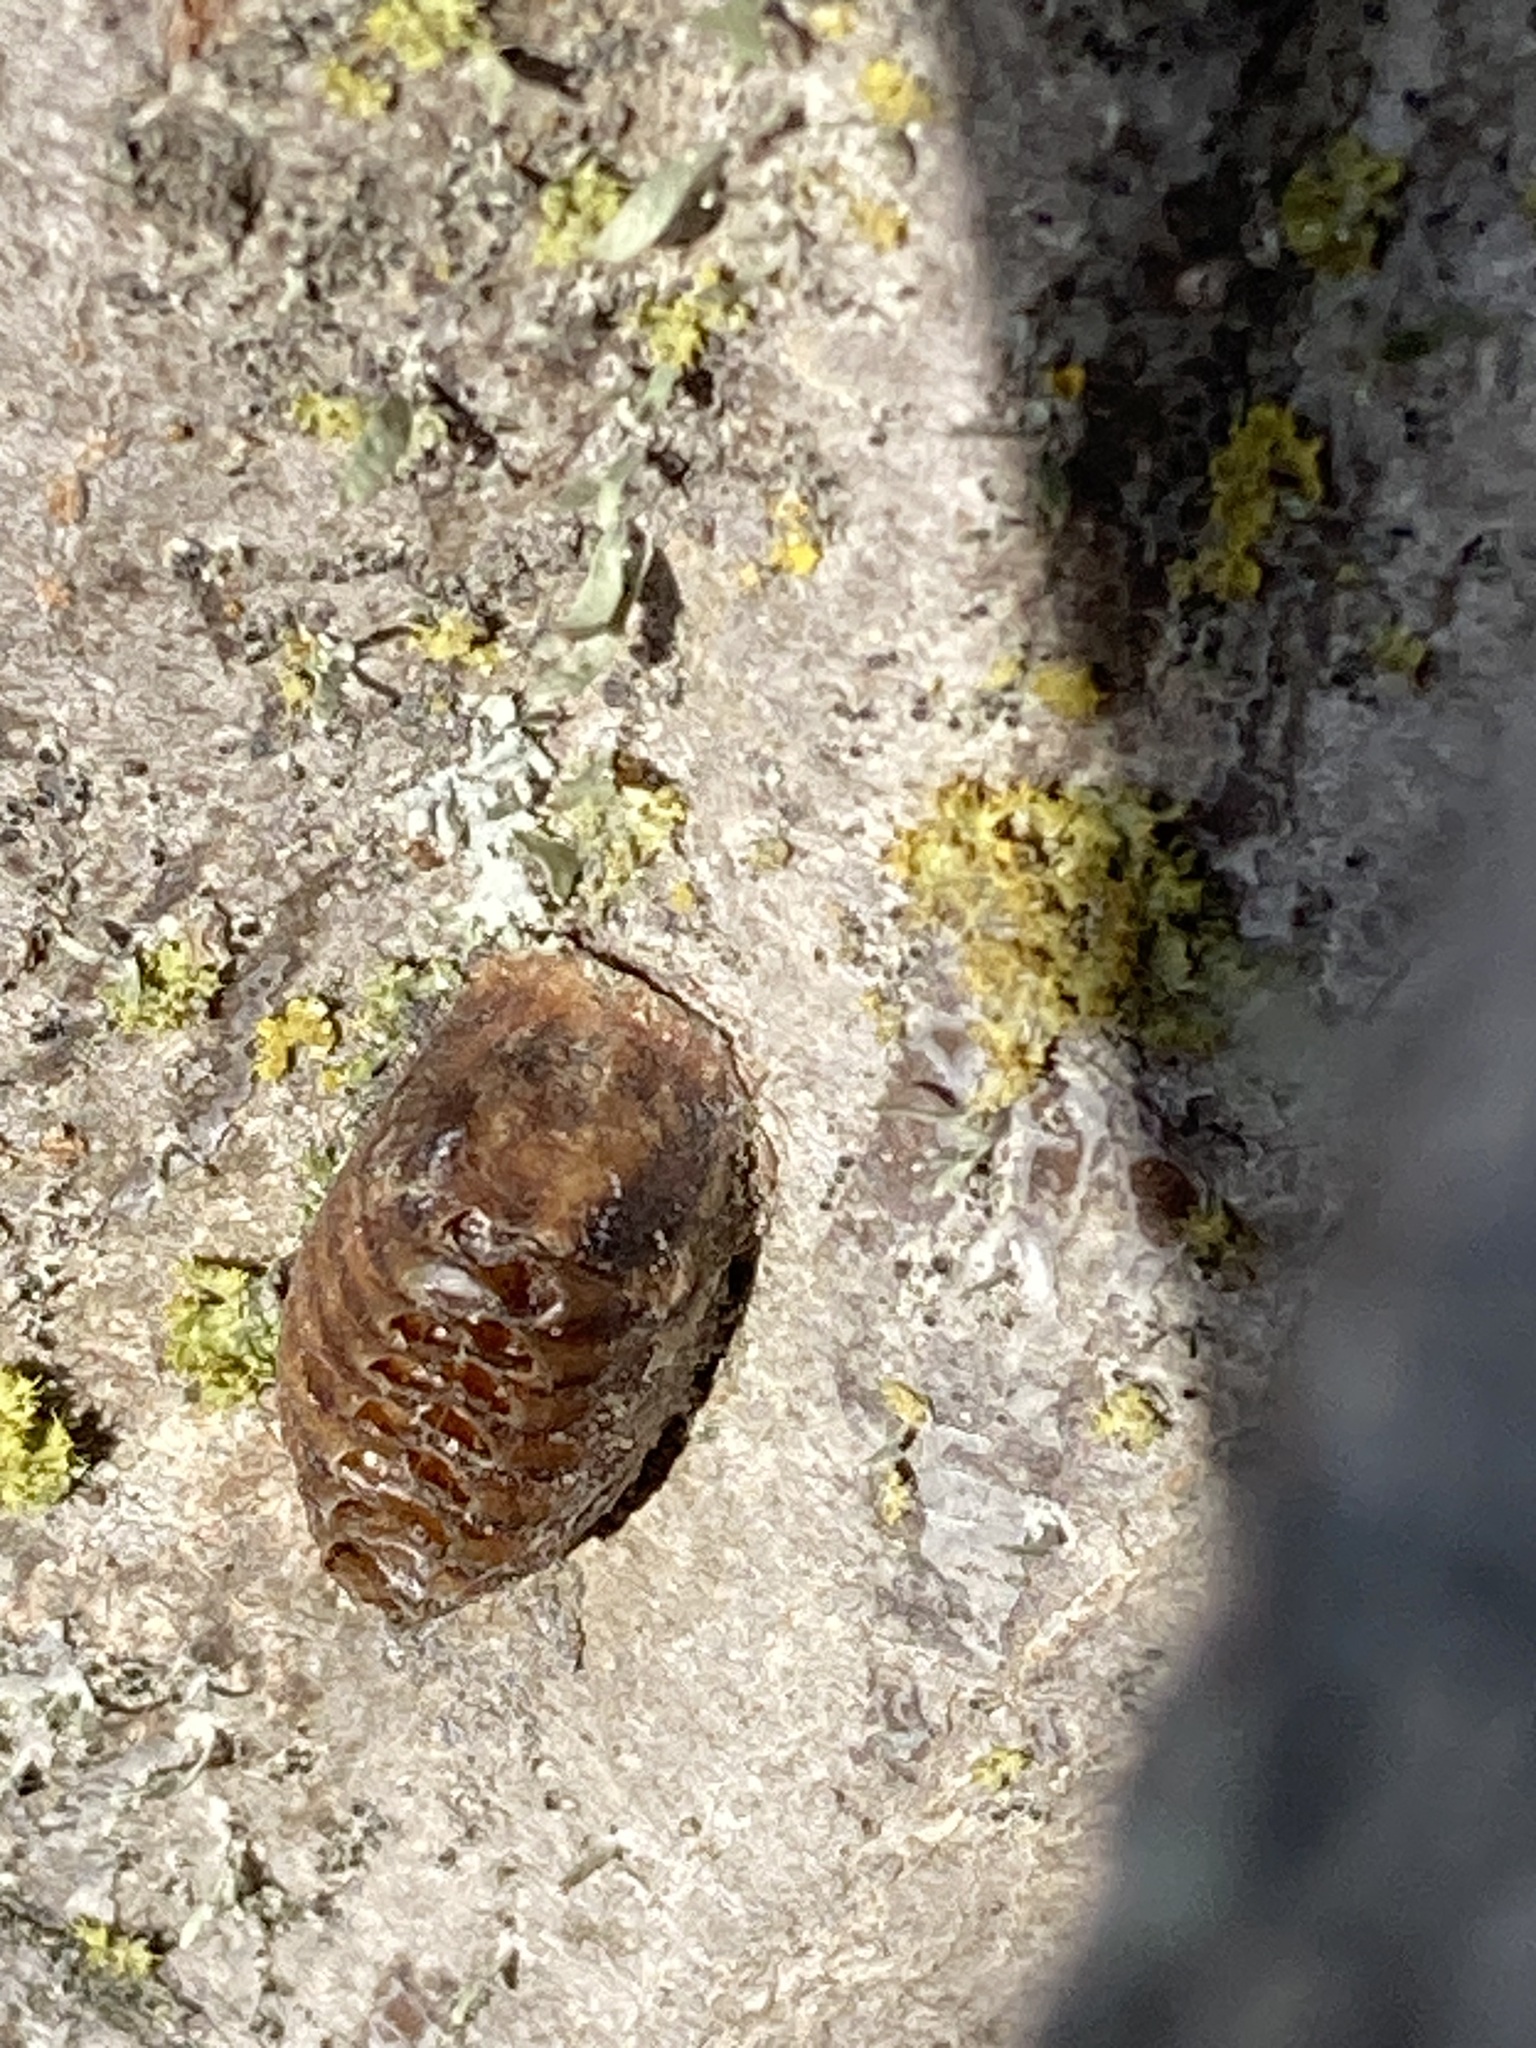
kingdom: Animalia
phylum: Arthropoda
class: Insecta
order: Mantodea
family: Mantidae
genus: Orthodera
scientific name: Orthodera novaezealandiae
